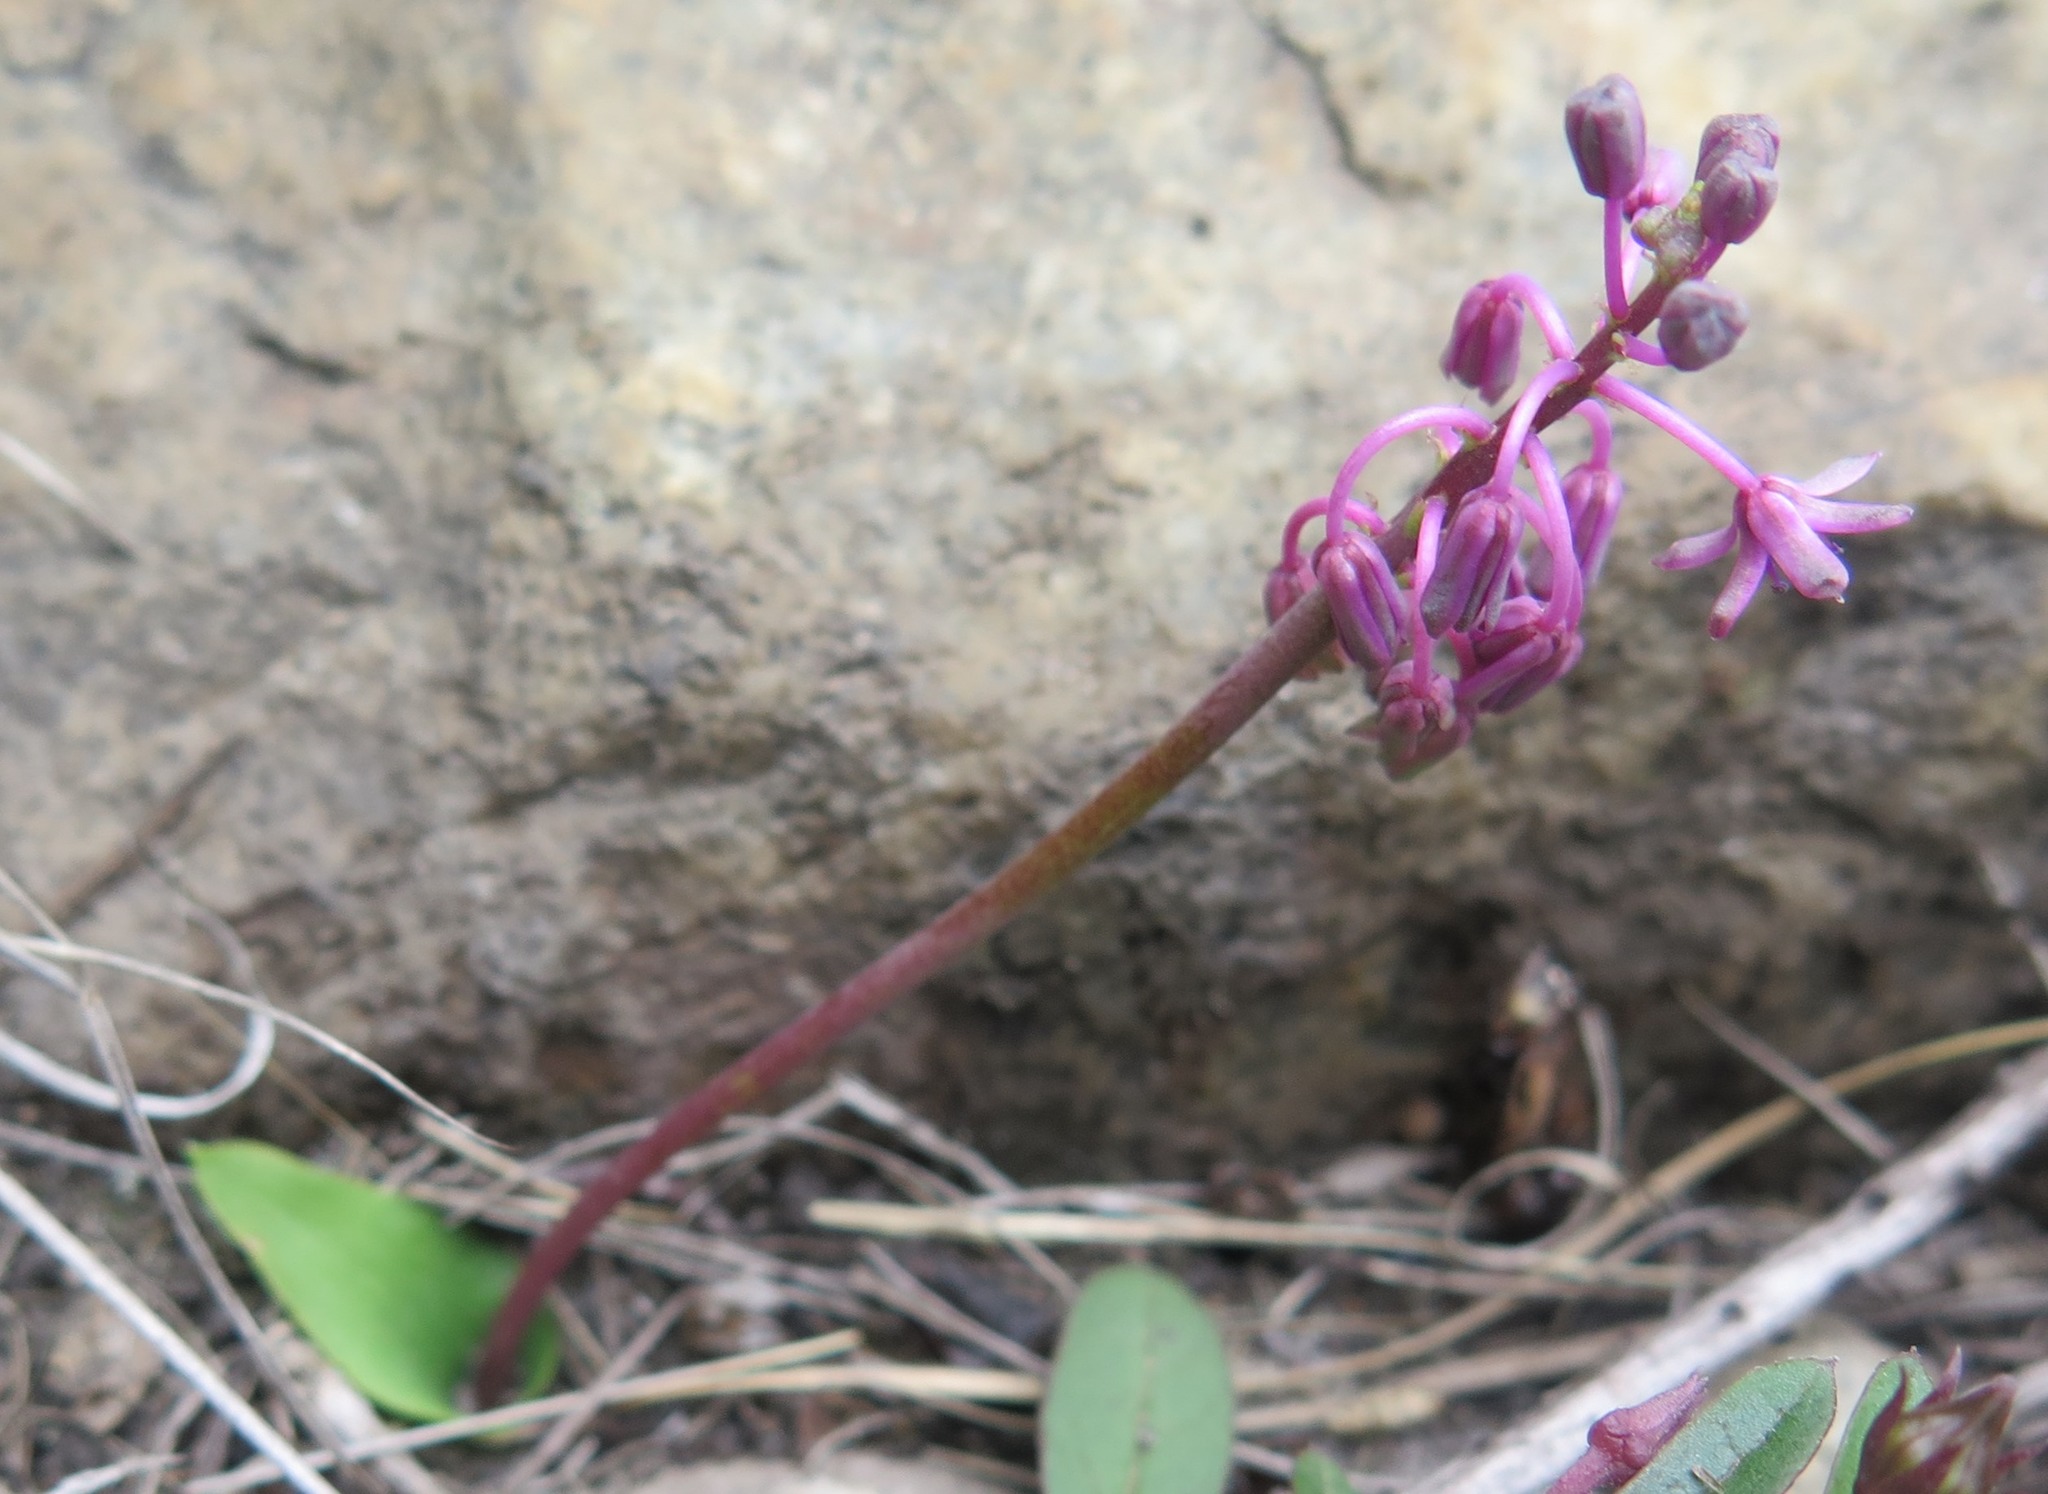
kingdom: Plantae
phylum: Tracheophyta
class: Liliopsida
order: Asparagales
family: Asparagaceae
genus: Ledebouria
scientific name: Ledebouria sandersonii
